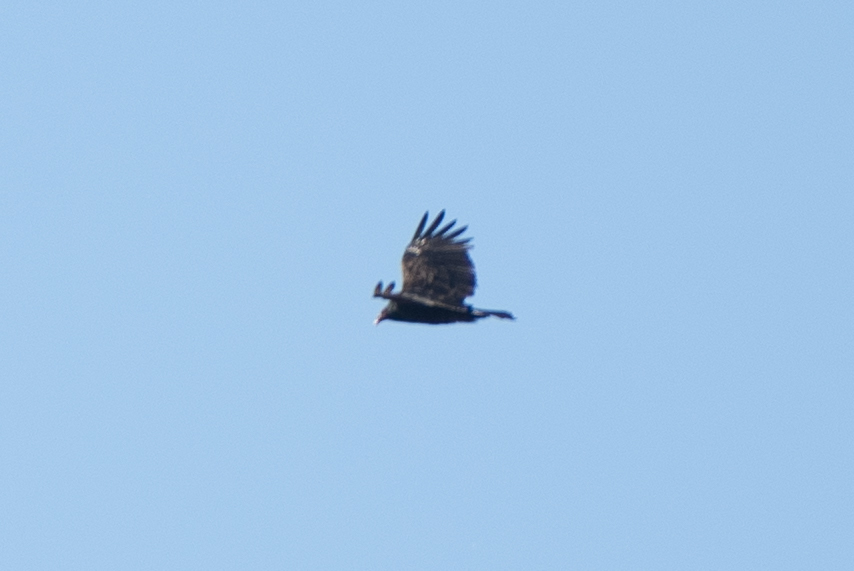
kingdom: Animalia
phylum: Chordata
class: Aves
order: Accipitriformes
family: Cathartidae
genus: Cathartes
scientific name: Cathartes aura
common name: Turkey vulture
